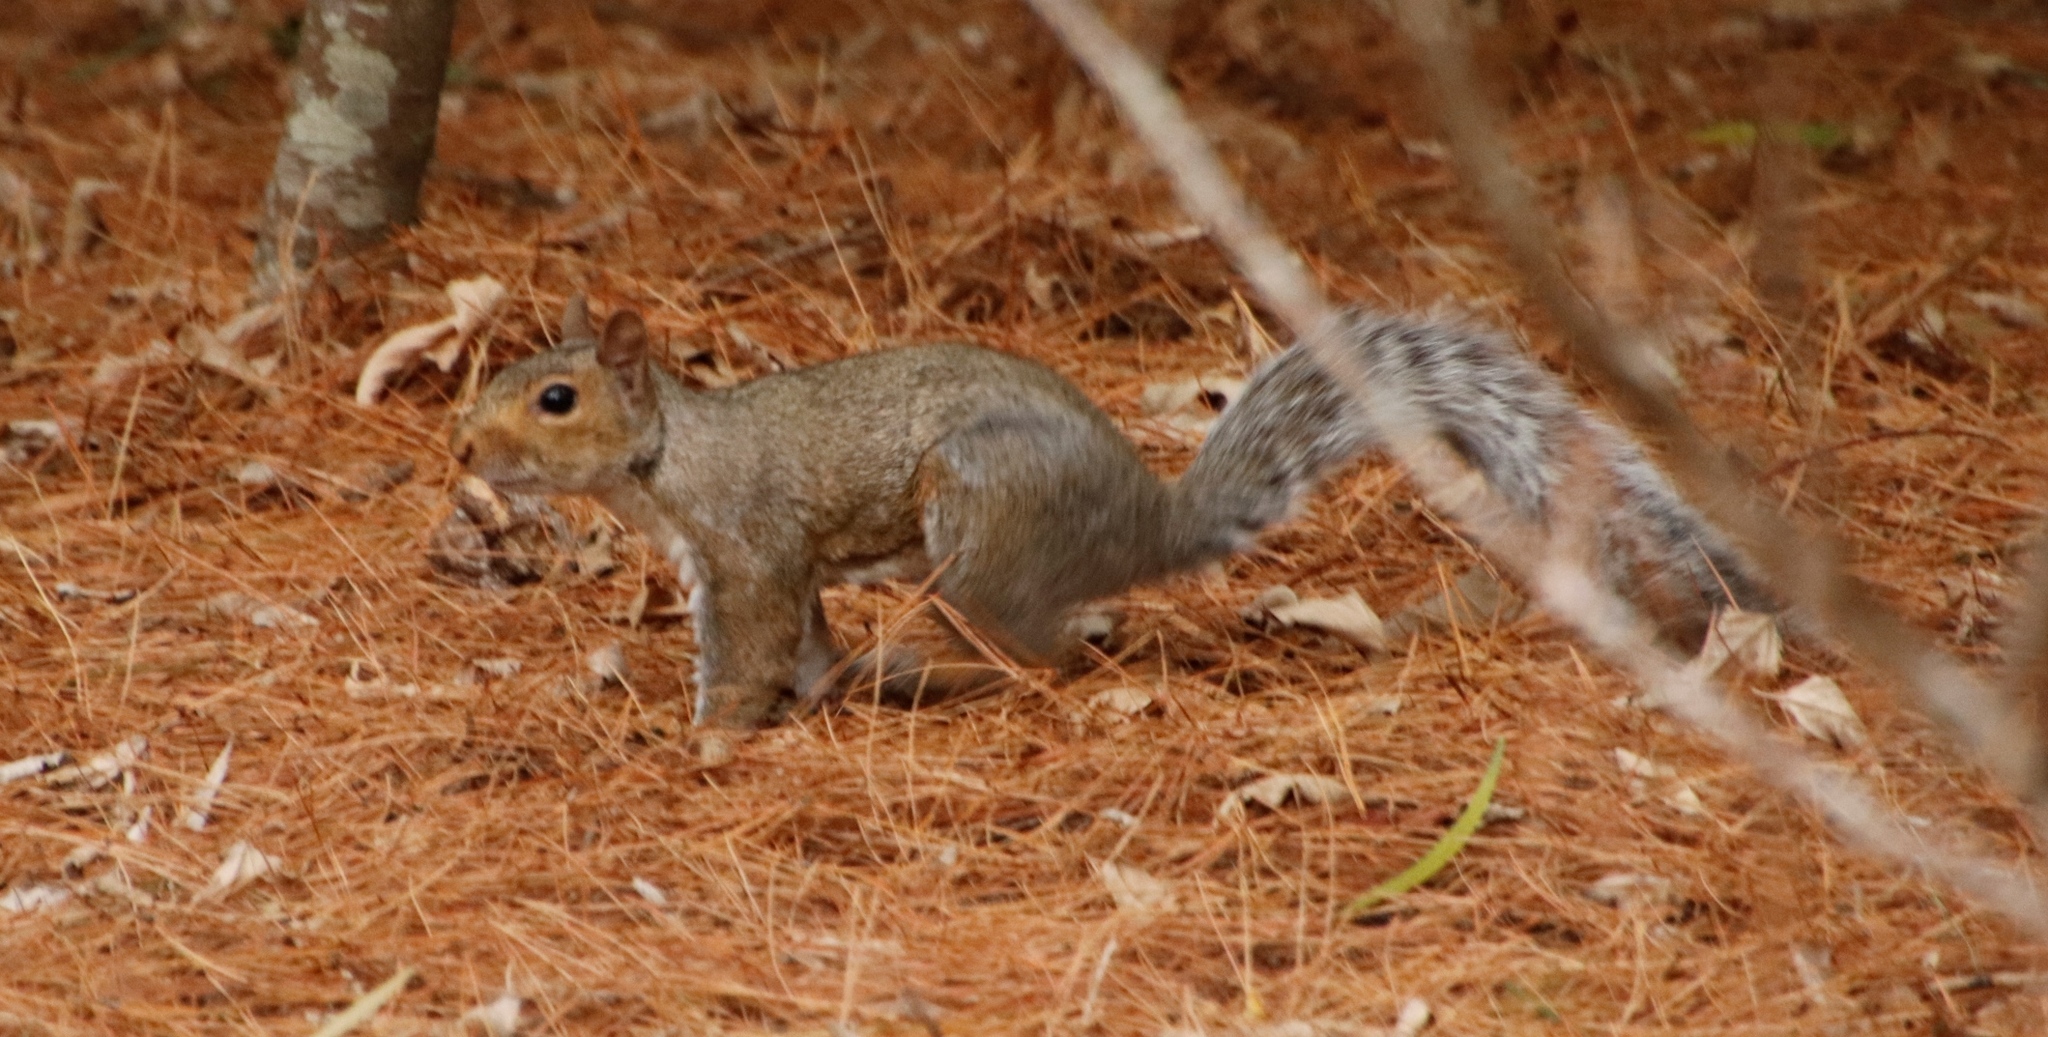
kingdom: Animalia
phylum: Chordata
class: Mammalia
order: Rodentia
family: Sciuridae
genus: Sciurus
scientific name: Sciurus carolinensis
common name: Eastern gray squirrel
